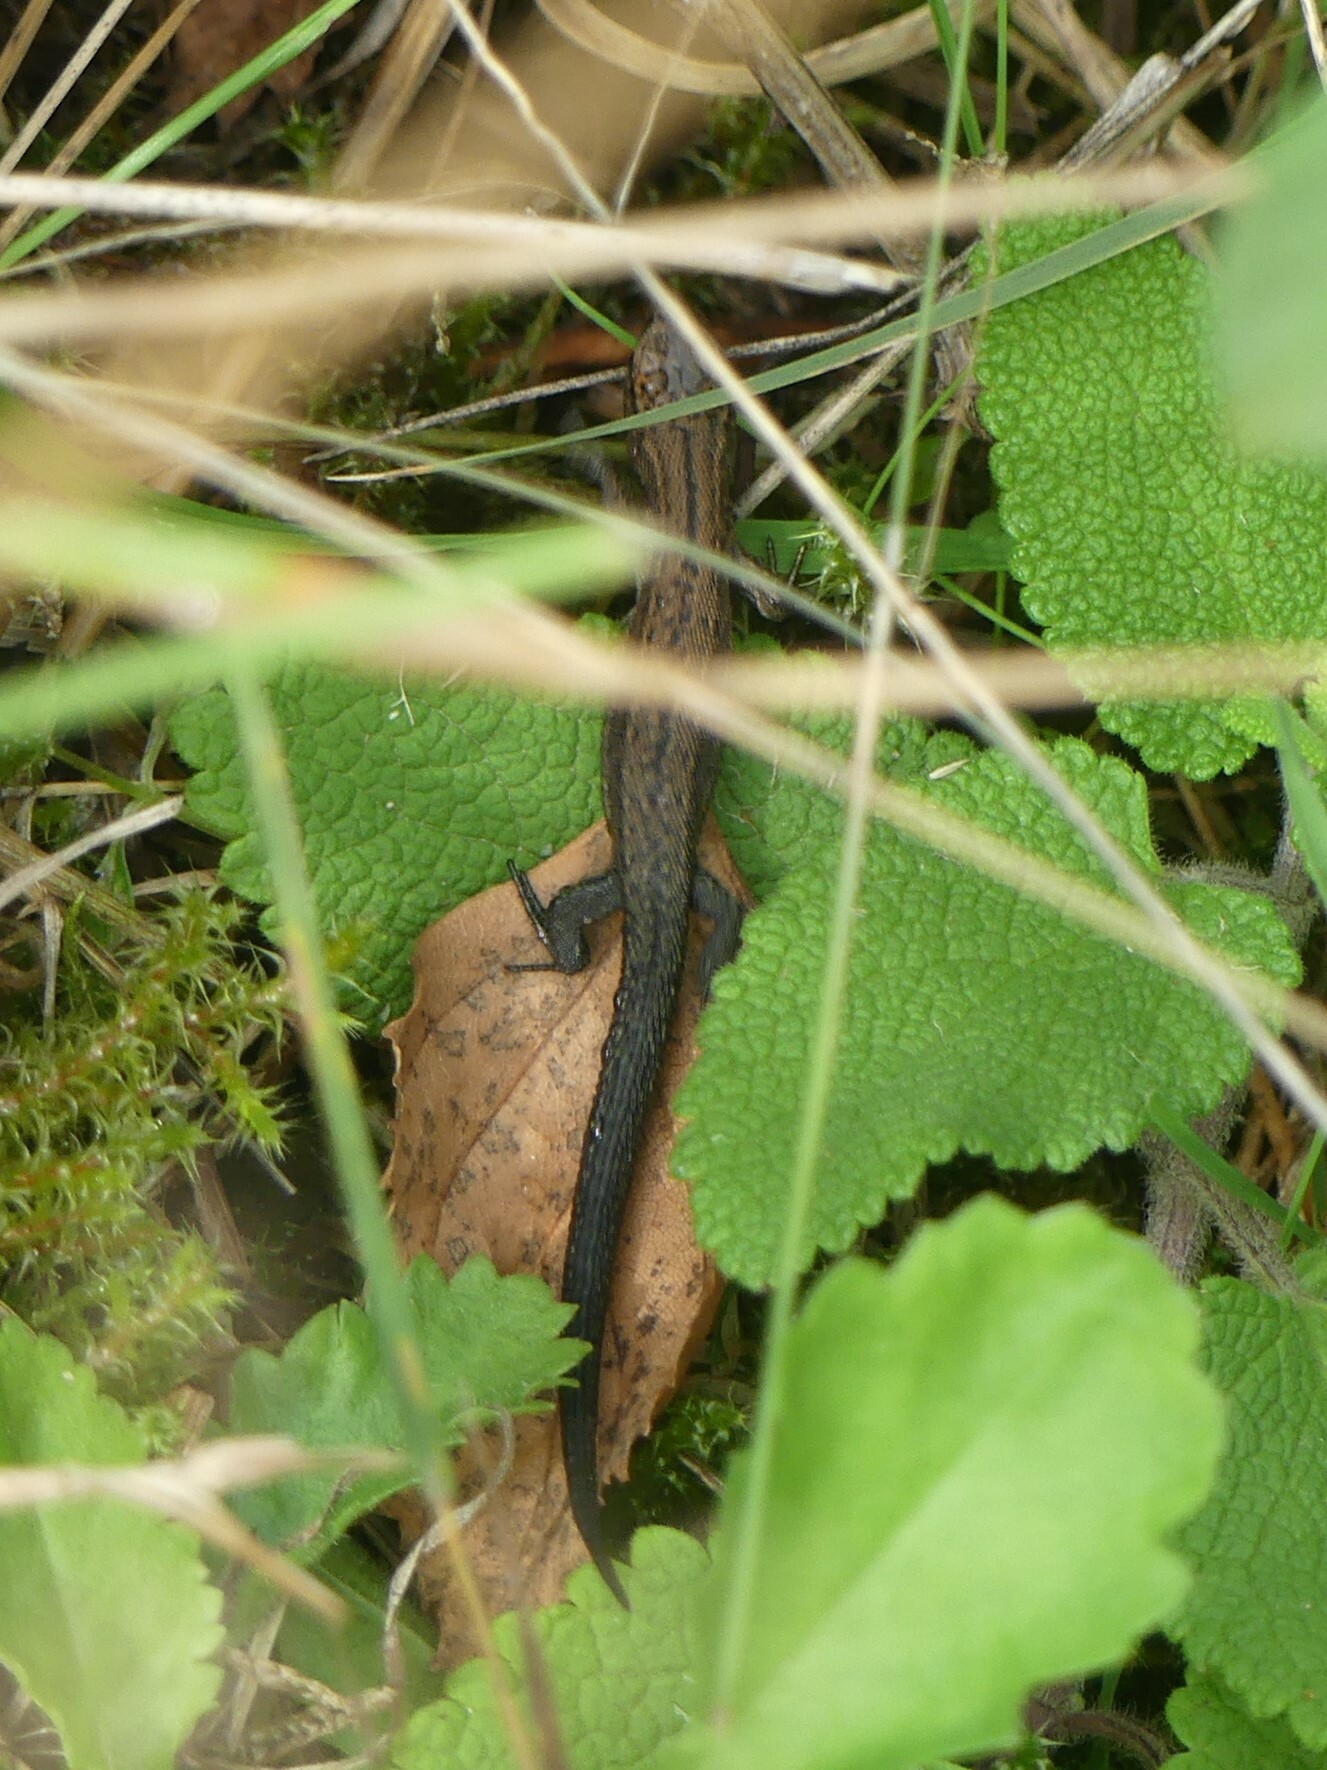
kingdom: Animalia
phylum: Chordata
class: Squamata
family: Lacertidae
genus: Zootoca
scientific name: Zootoca vivipara
